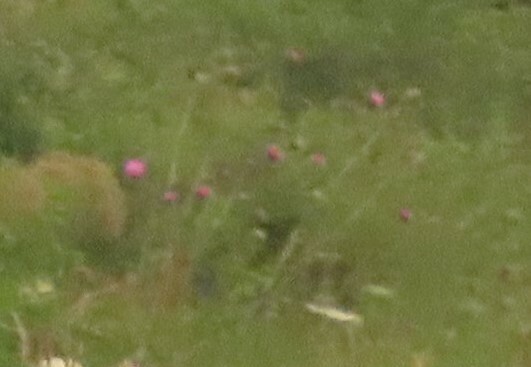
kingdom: Plantae
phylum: Tracheophyta
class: Magnoliopsida
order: Asterales
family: Asteraceae
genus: Carduus
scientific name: Carduus nutans
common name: Musk thistle
